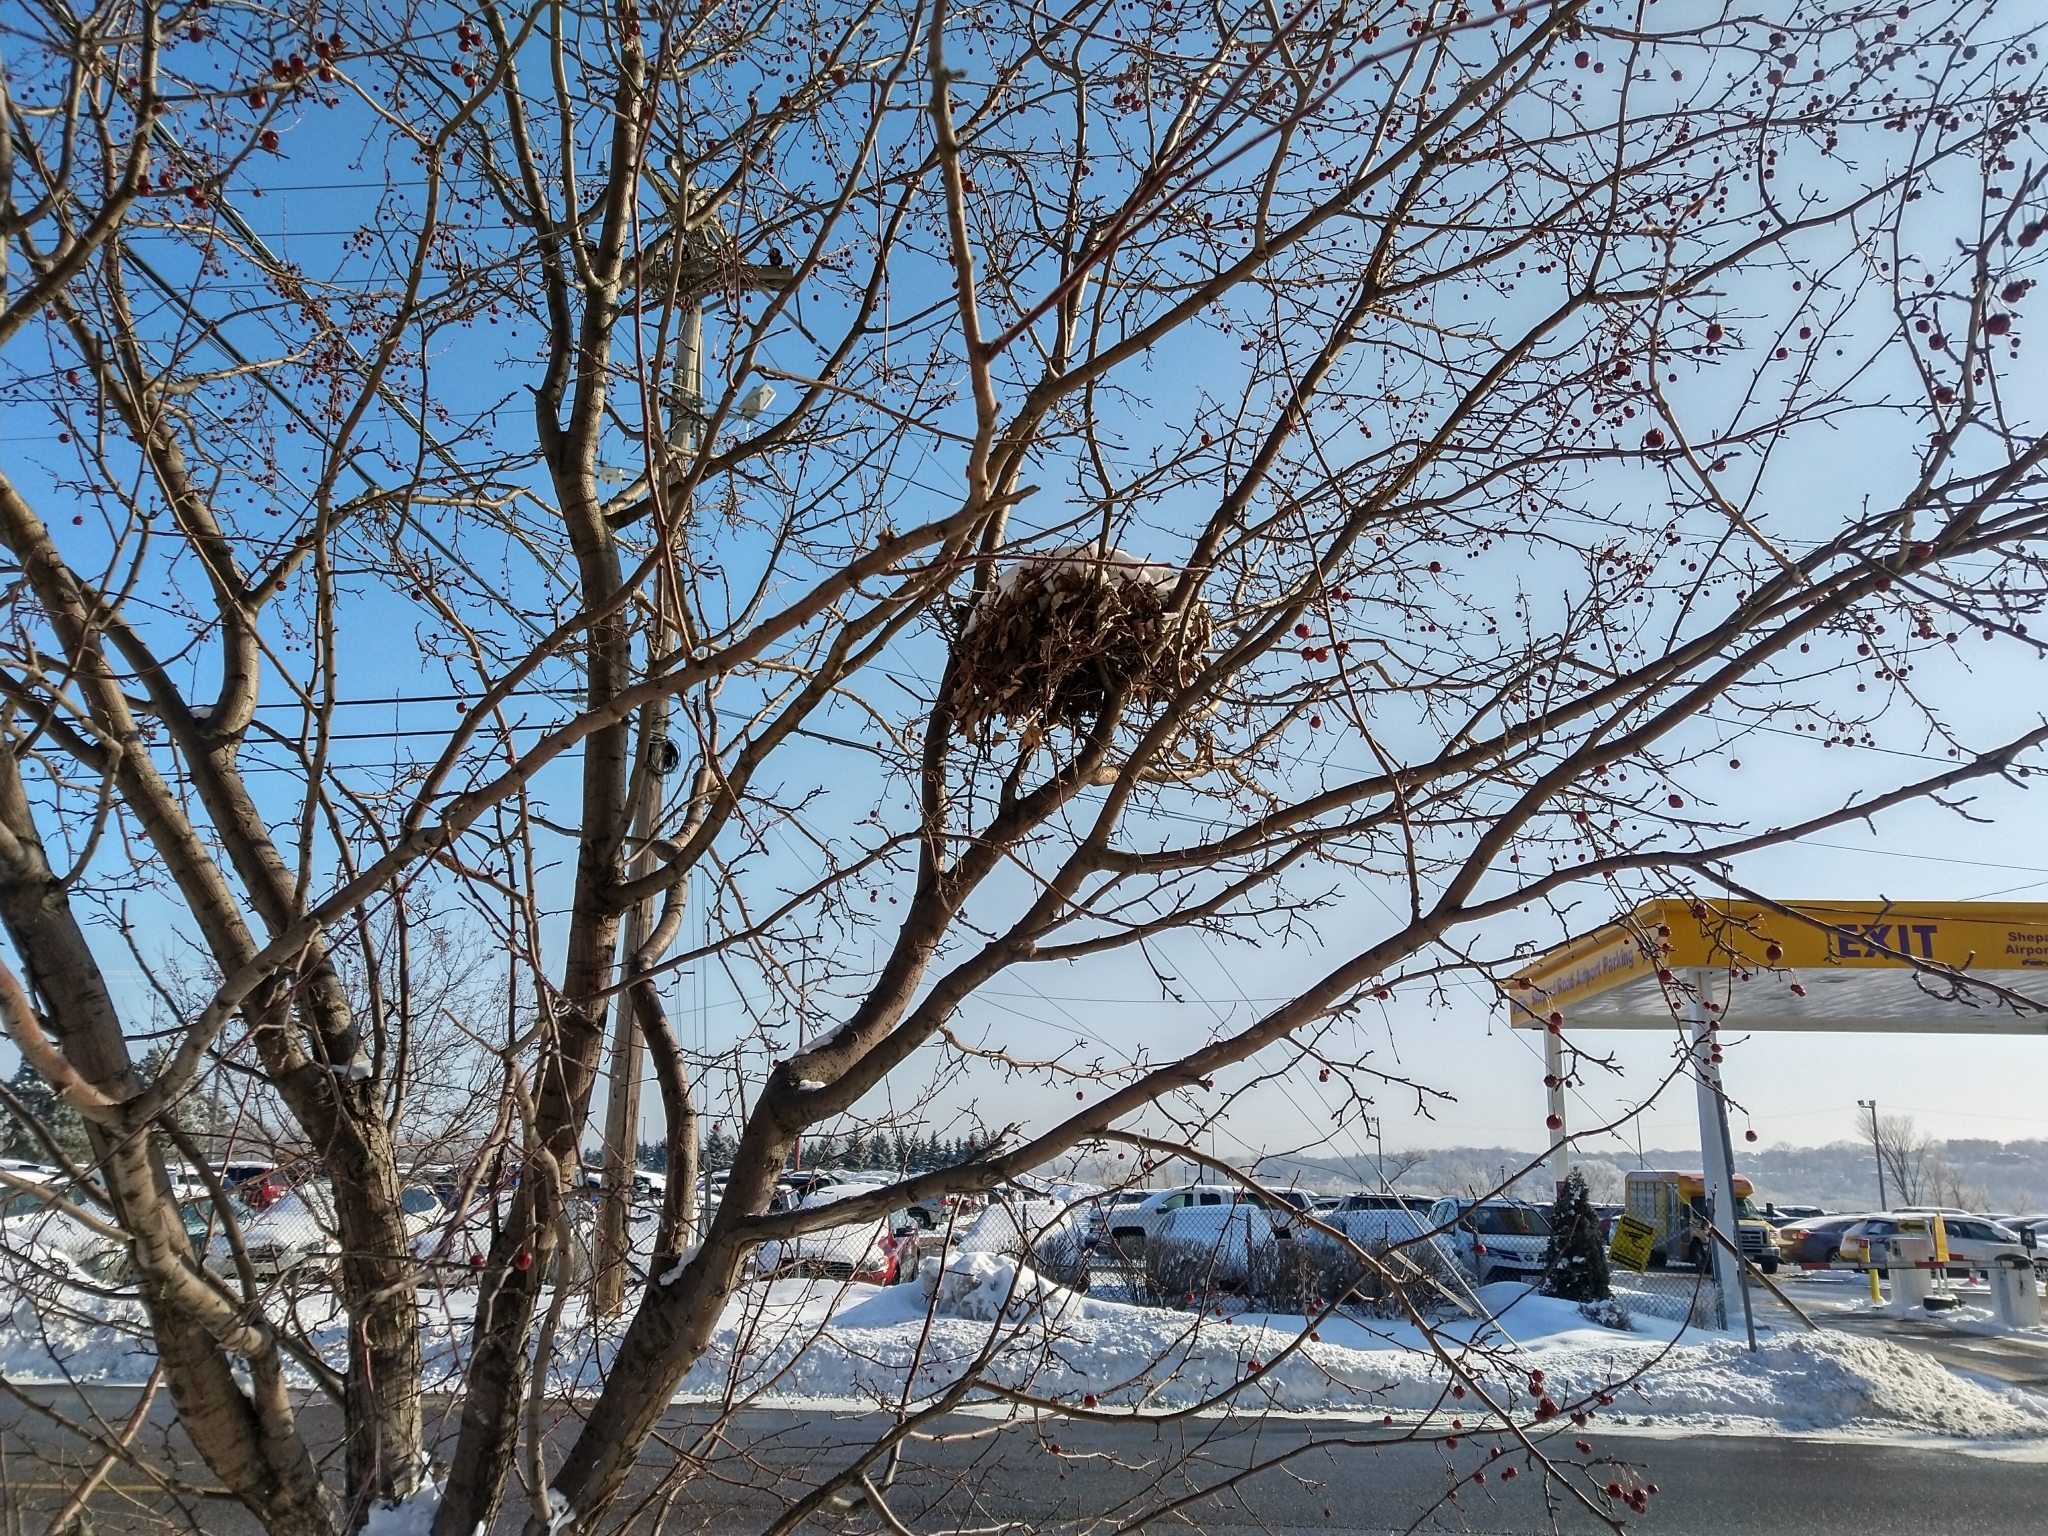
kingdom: Animalia
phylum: Chordata
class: Mammalia
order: Rodentia
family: Sciuridae
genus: Sciurus
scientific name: Sciurus carolinensis
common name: Eastern gray squirrel
